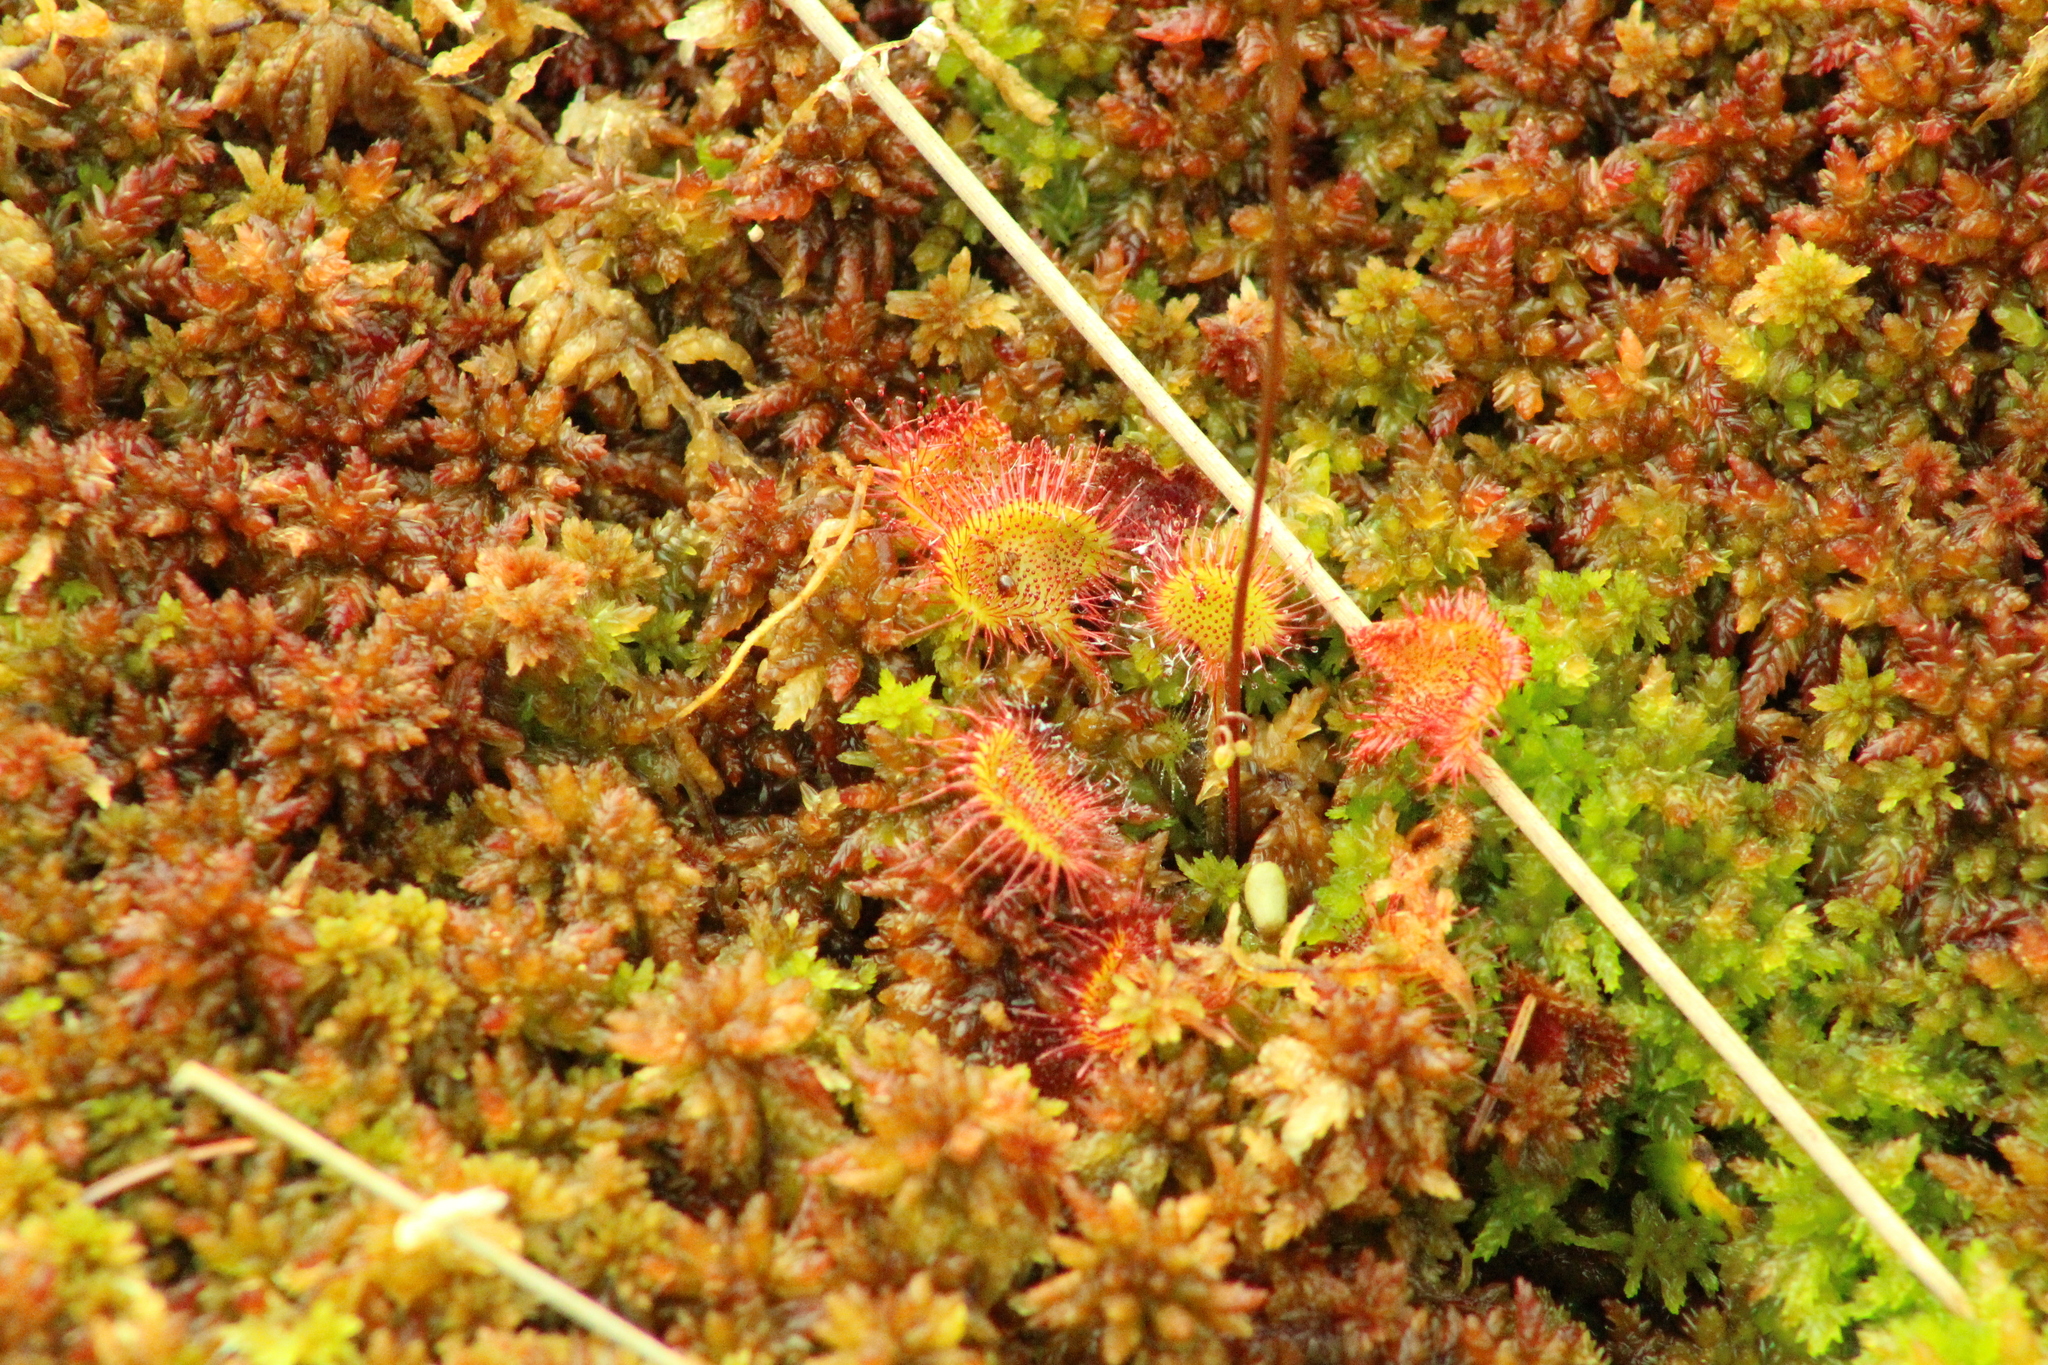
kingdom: Plantae
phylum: Tracheophyta
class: Magnoliopsida
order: Caryophyllales
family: Droseraceae
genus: Drosera
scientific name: Drosera rotundifolia
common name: Round-leaved sundew
